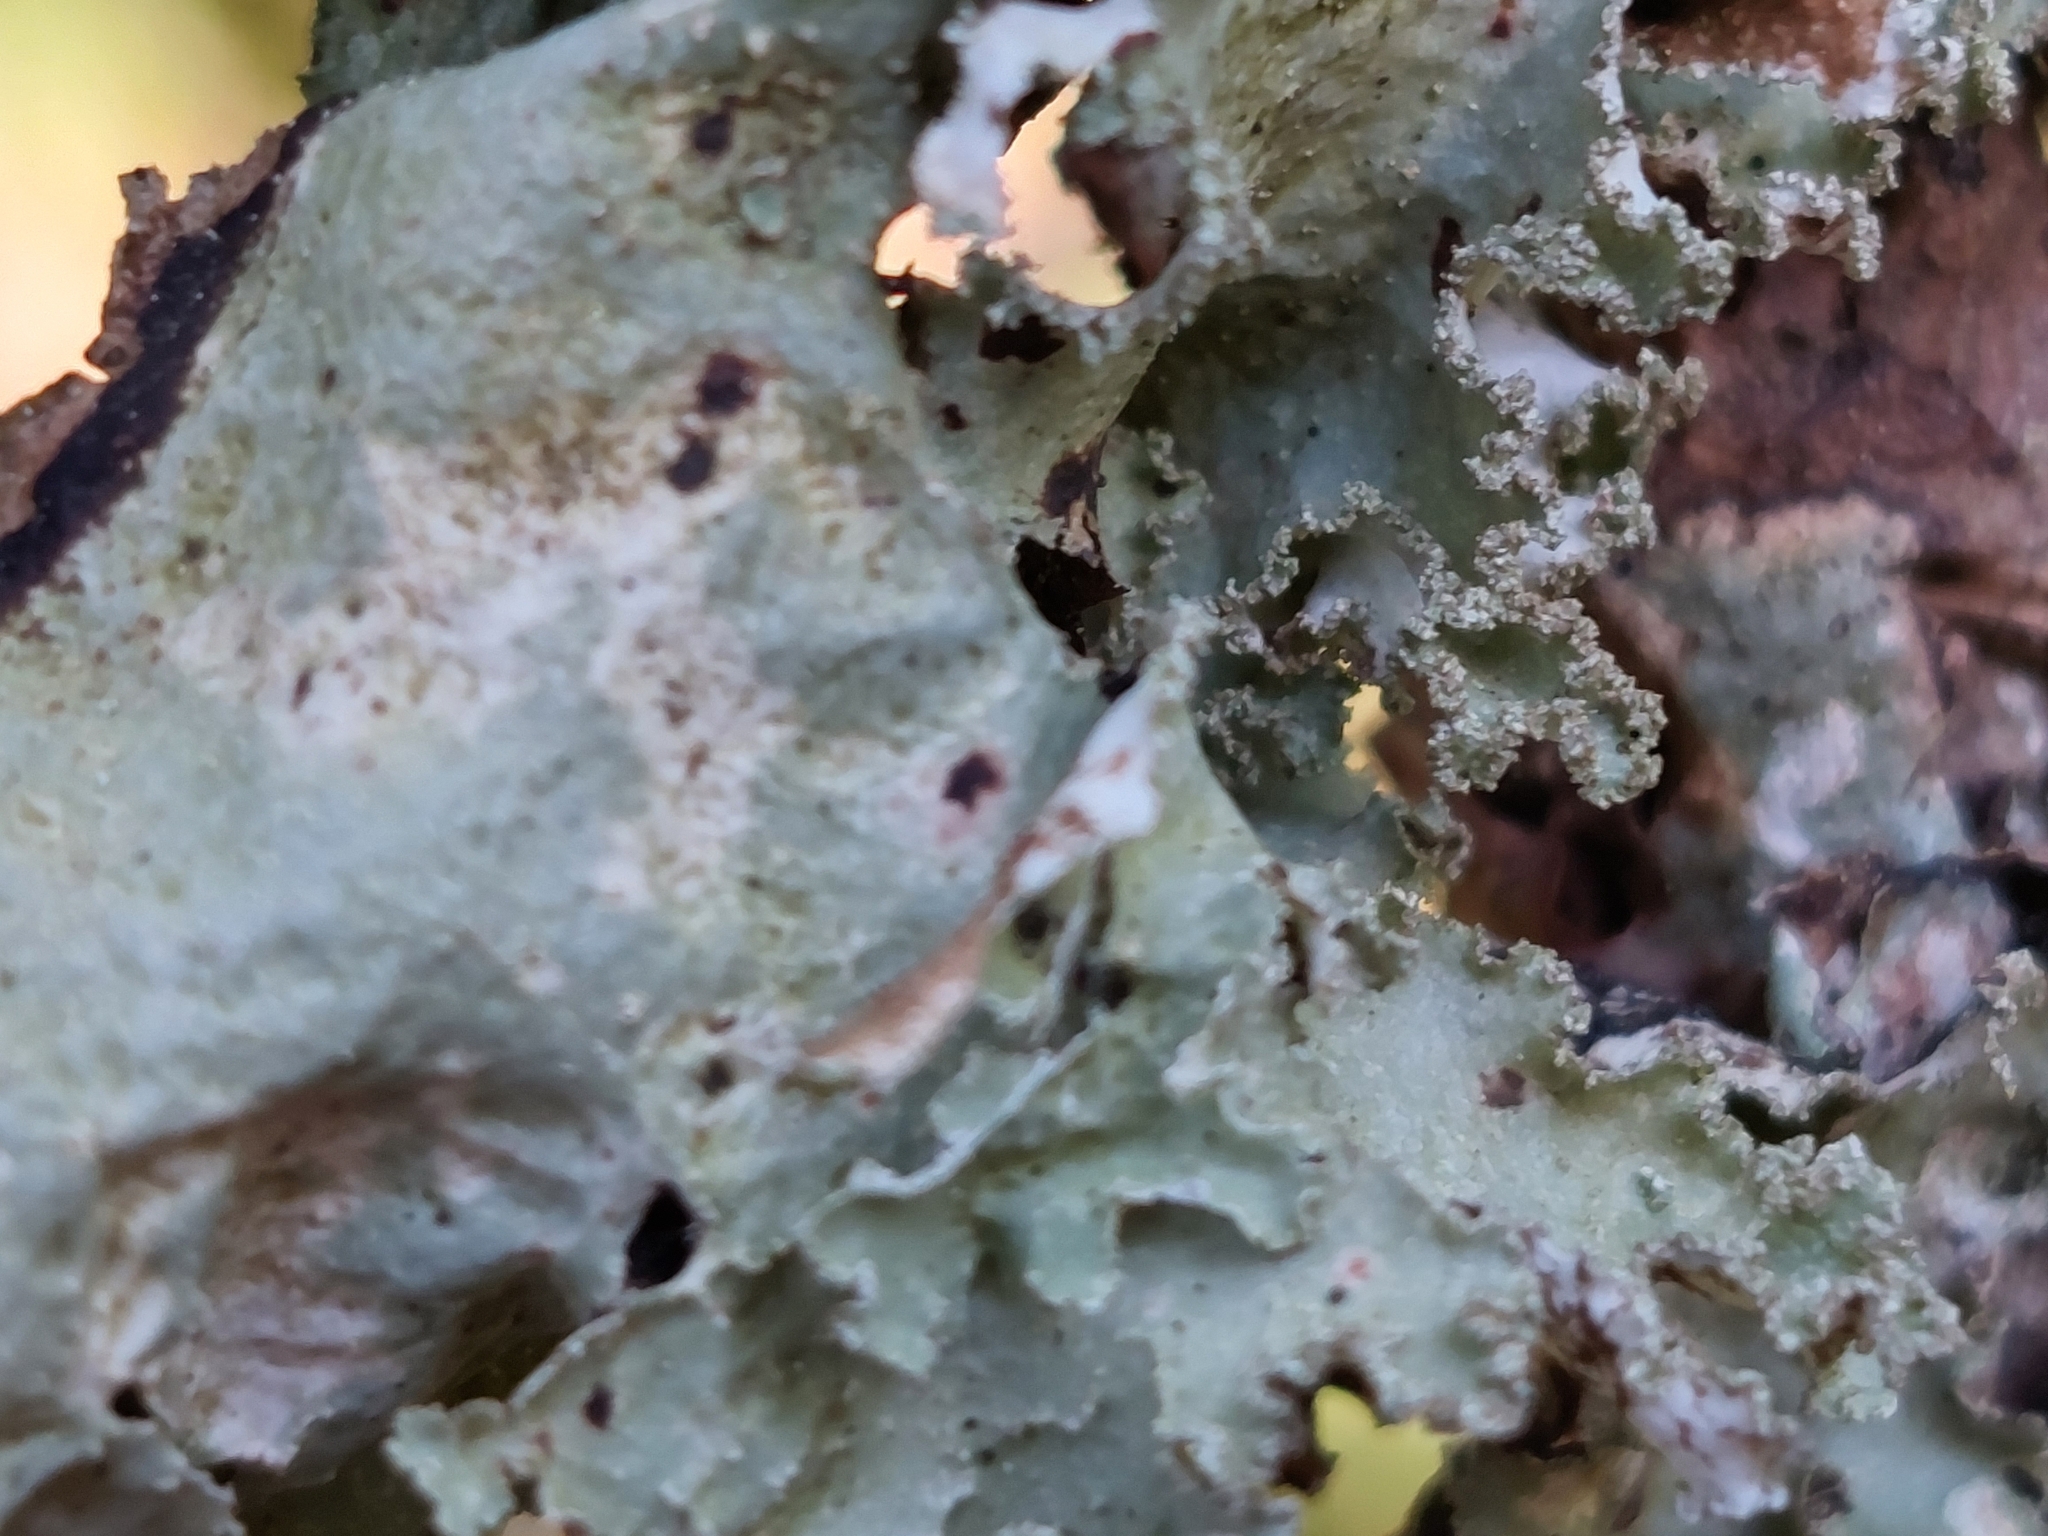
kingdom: Fungi
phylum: Ascomycota
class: Lecanoromycetes
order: Lecanorales
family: Parmeliaceae
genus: Platismatia
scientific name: Platismatia glauca
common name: Varied rag lichen
